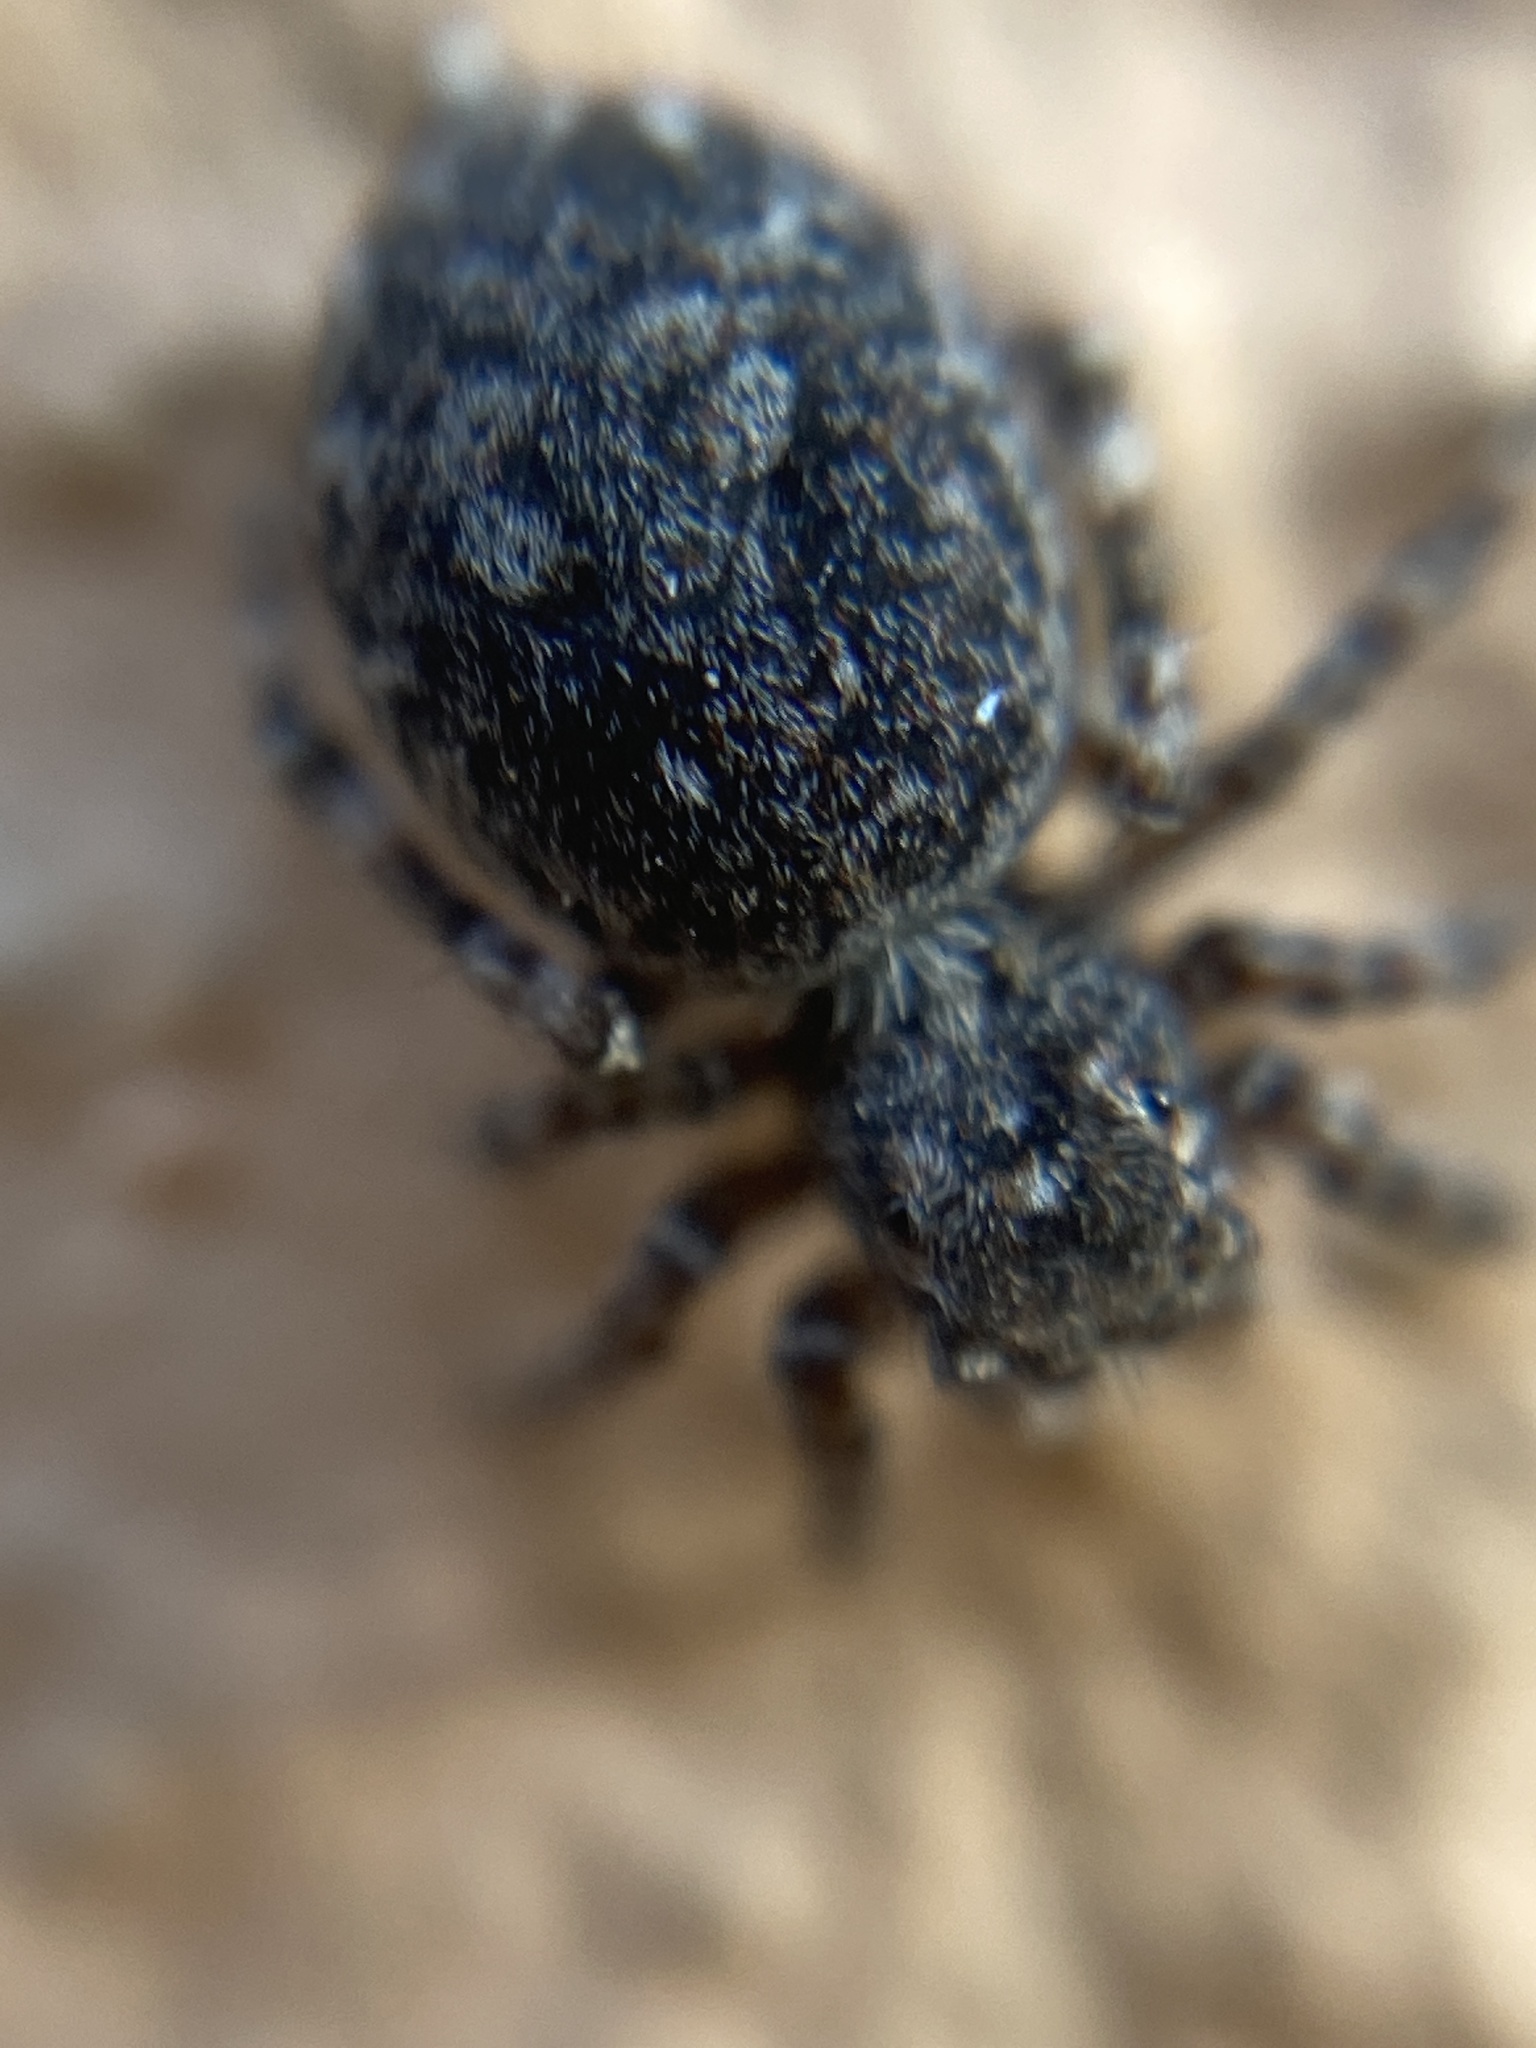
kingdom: Animalia
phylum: Arthropoda
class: Arachnida
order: Araneae
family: Salticidae
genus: Attulus
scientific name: Attulus pubescens
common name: Jumping spider
